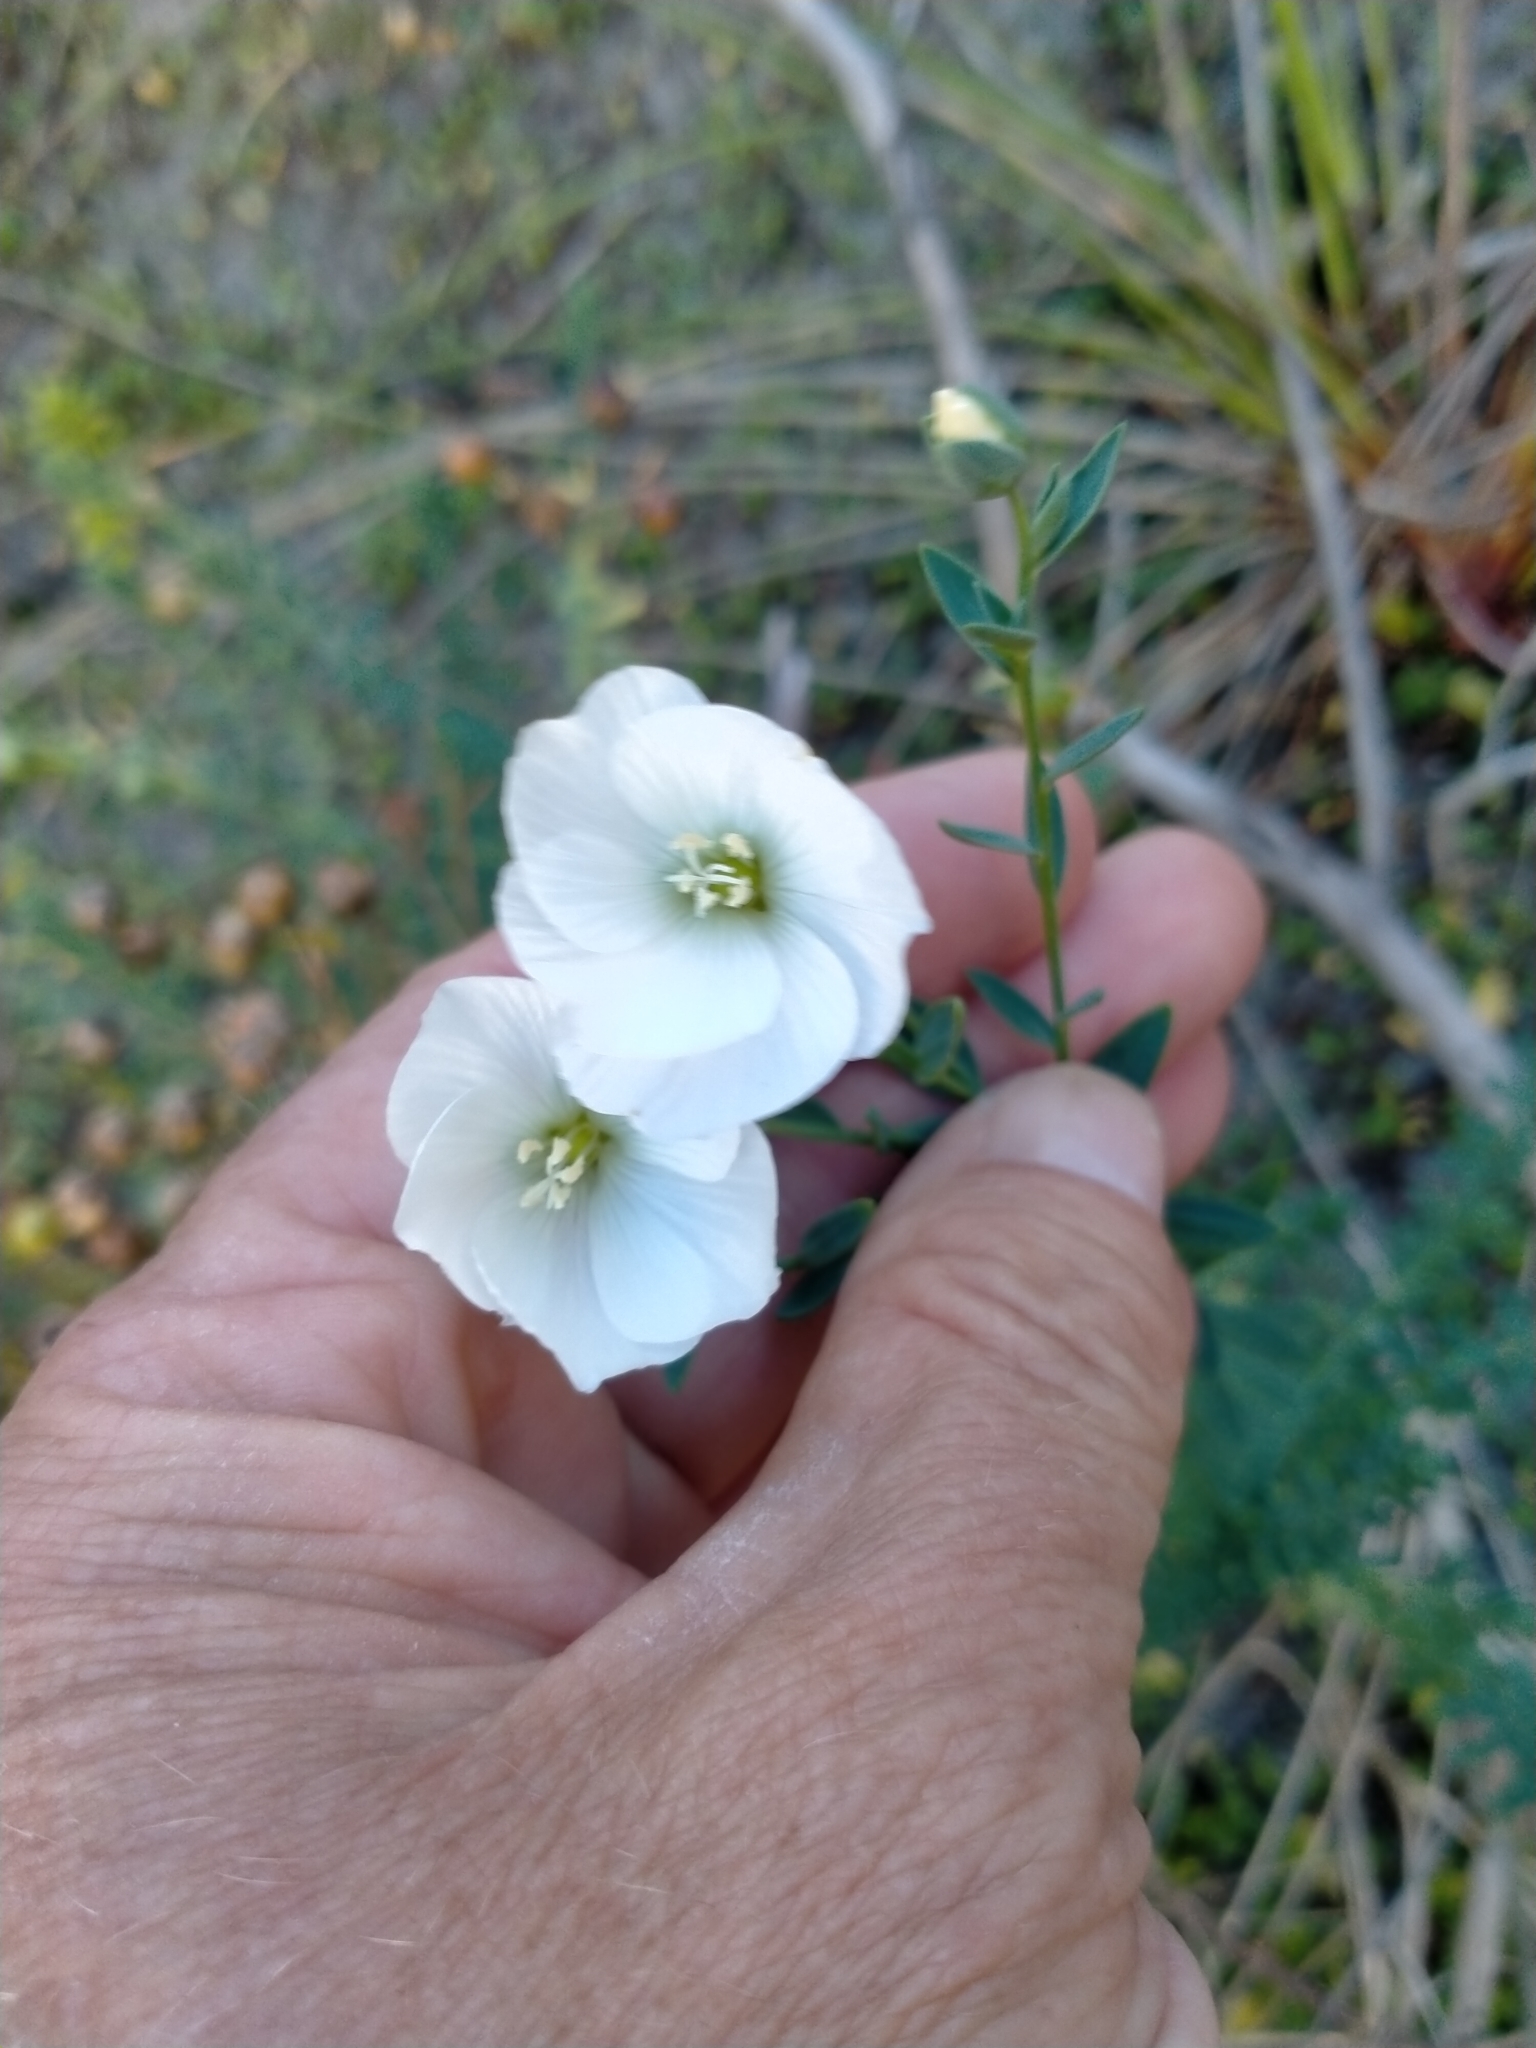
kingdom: Plantae
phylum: Tracheophyta
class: Magnoliopsida
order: Malpighiales
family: Linaceae
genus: Linum
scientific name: Linum monogynum
